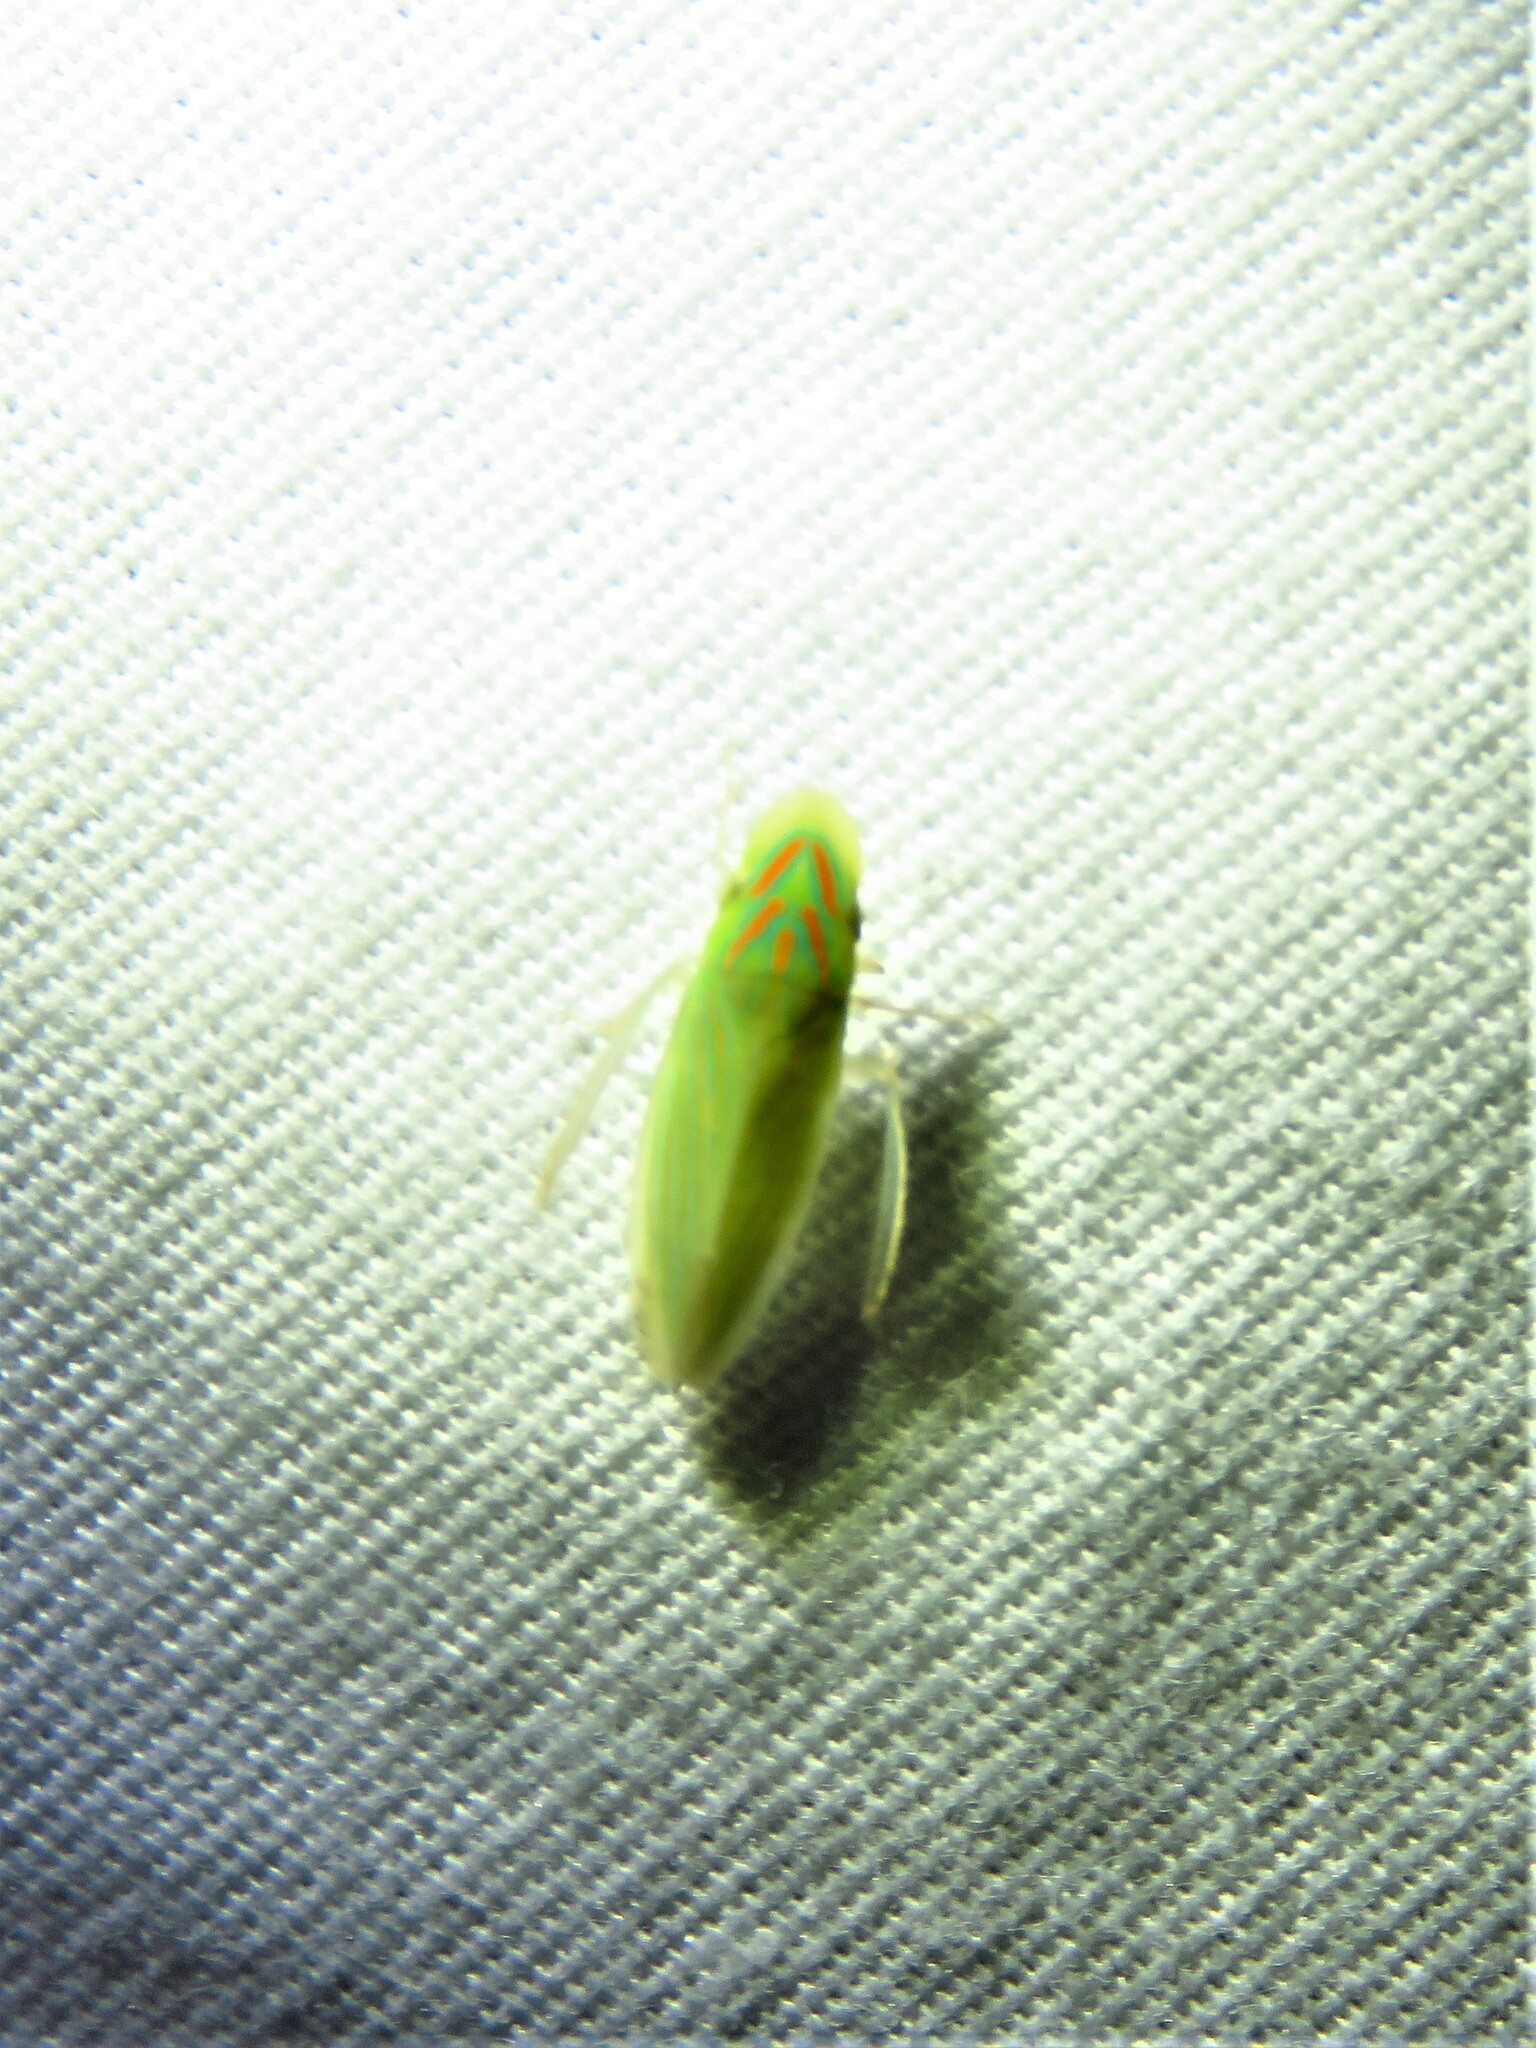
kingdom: Animalia
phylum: Arthropoda
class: Insecta
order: Hemiptera
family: Cicadellidae
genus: Spangbergiella
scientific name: Spangbergiella vulnerata
